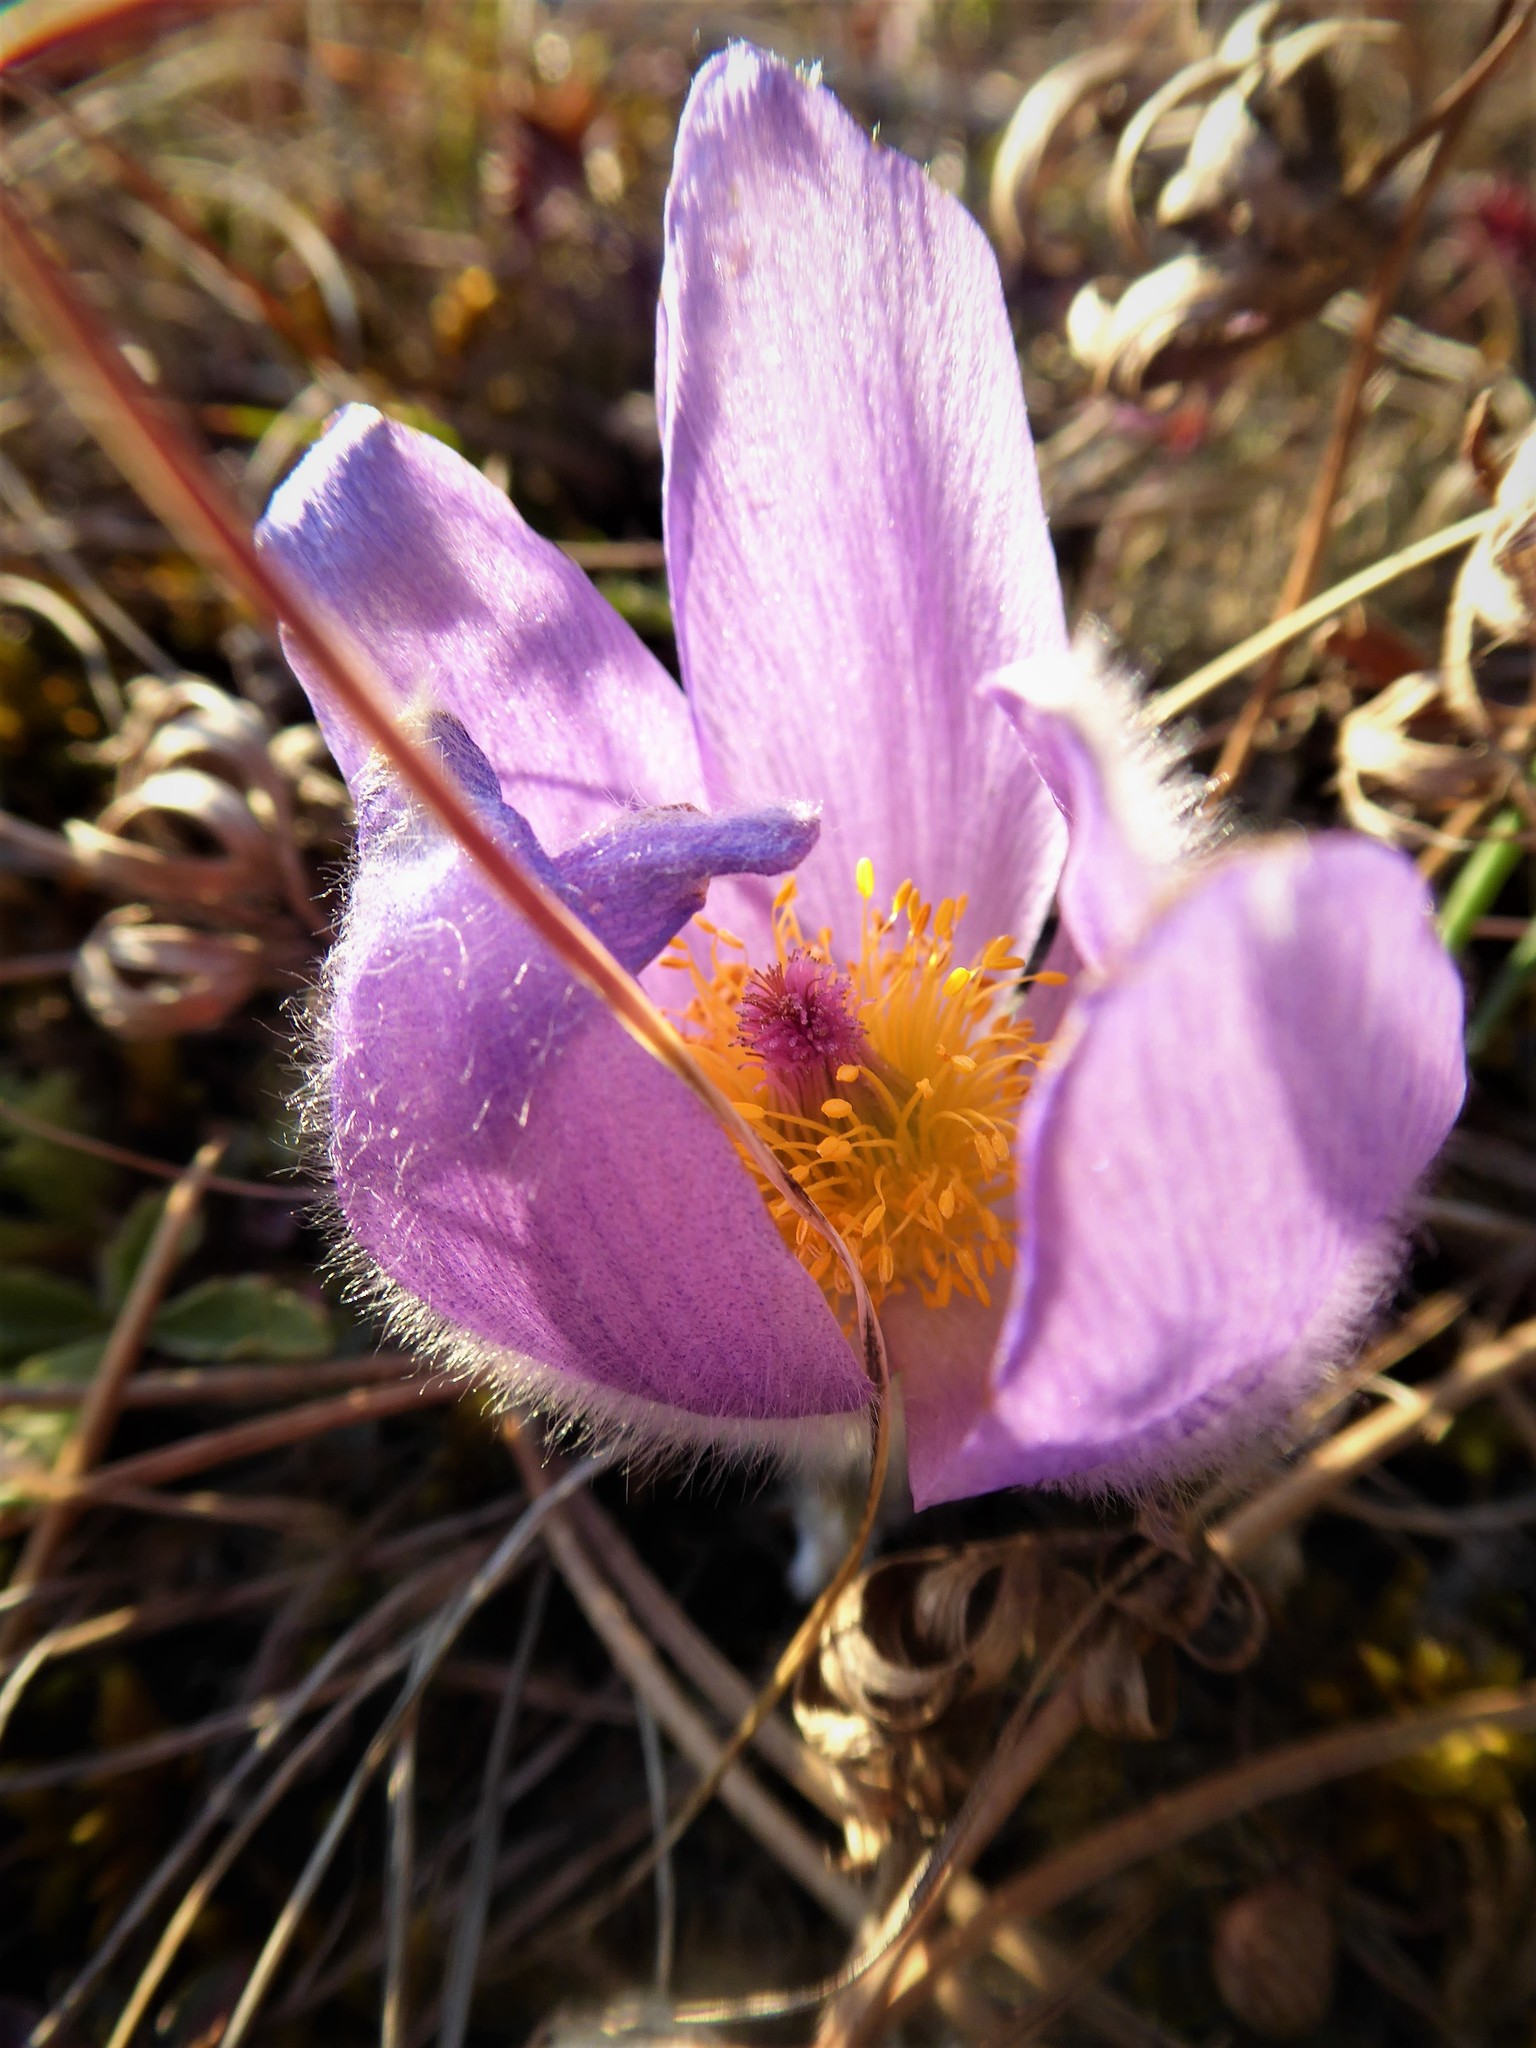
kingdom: Plantae
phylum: Tracheophyta
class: Magnoliopsida
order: Ranunculales
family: Ranunculaceae
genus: Pulsatilla
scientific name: Pulsatilla grandis
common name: Greater pasque flower
